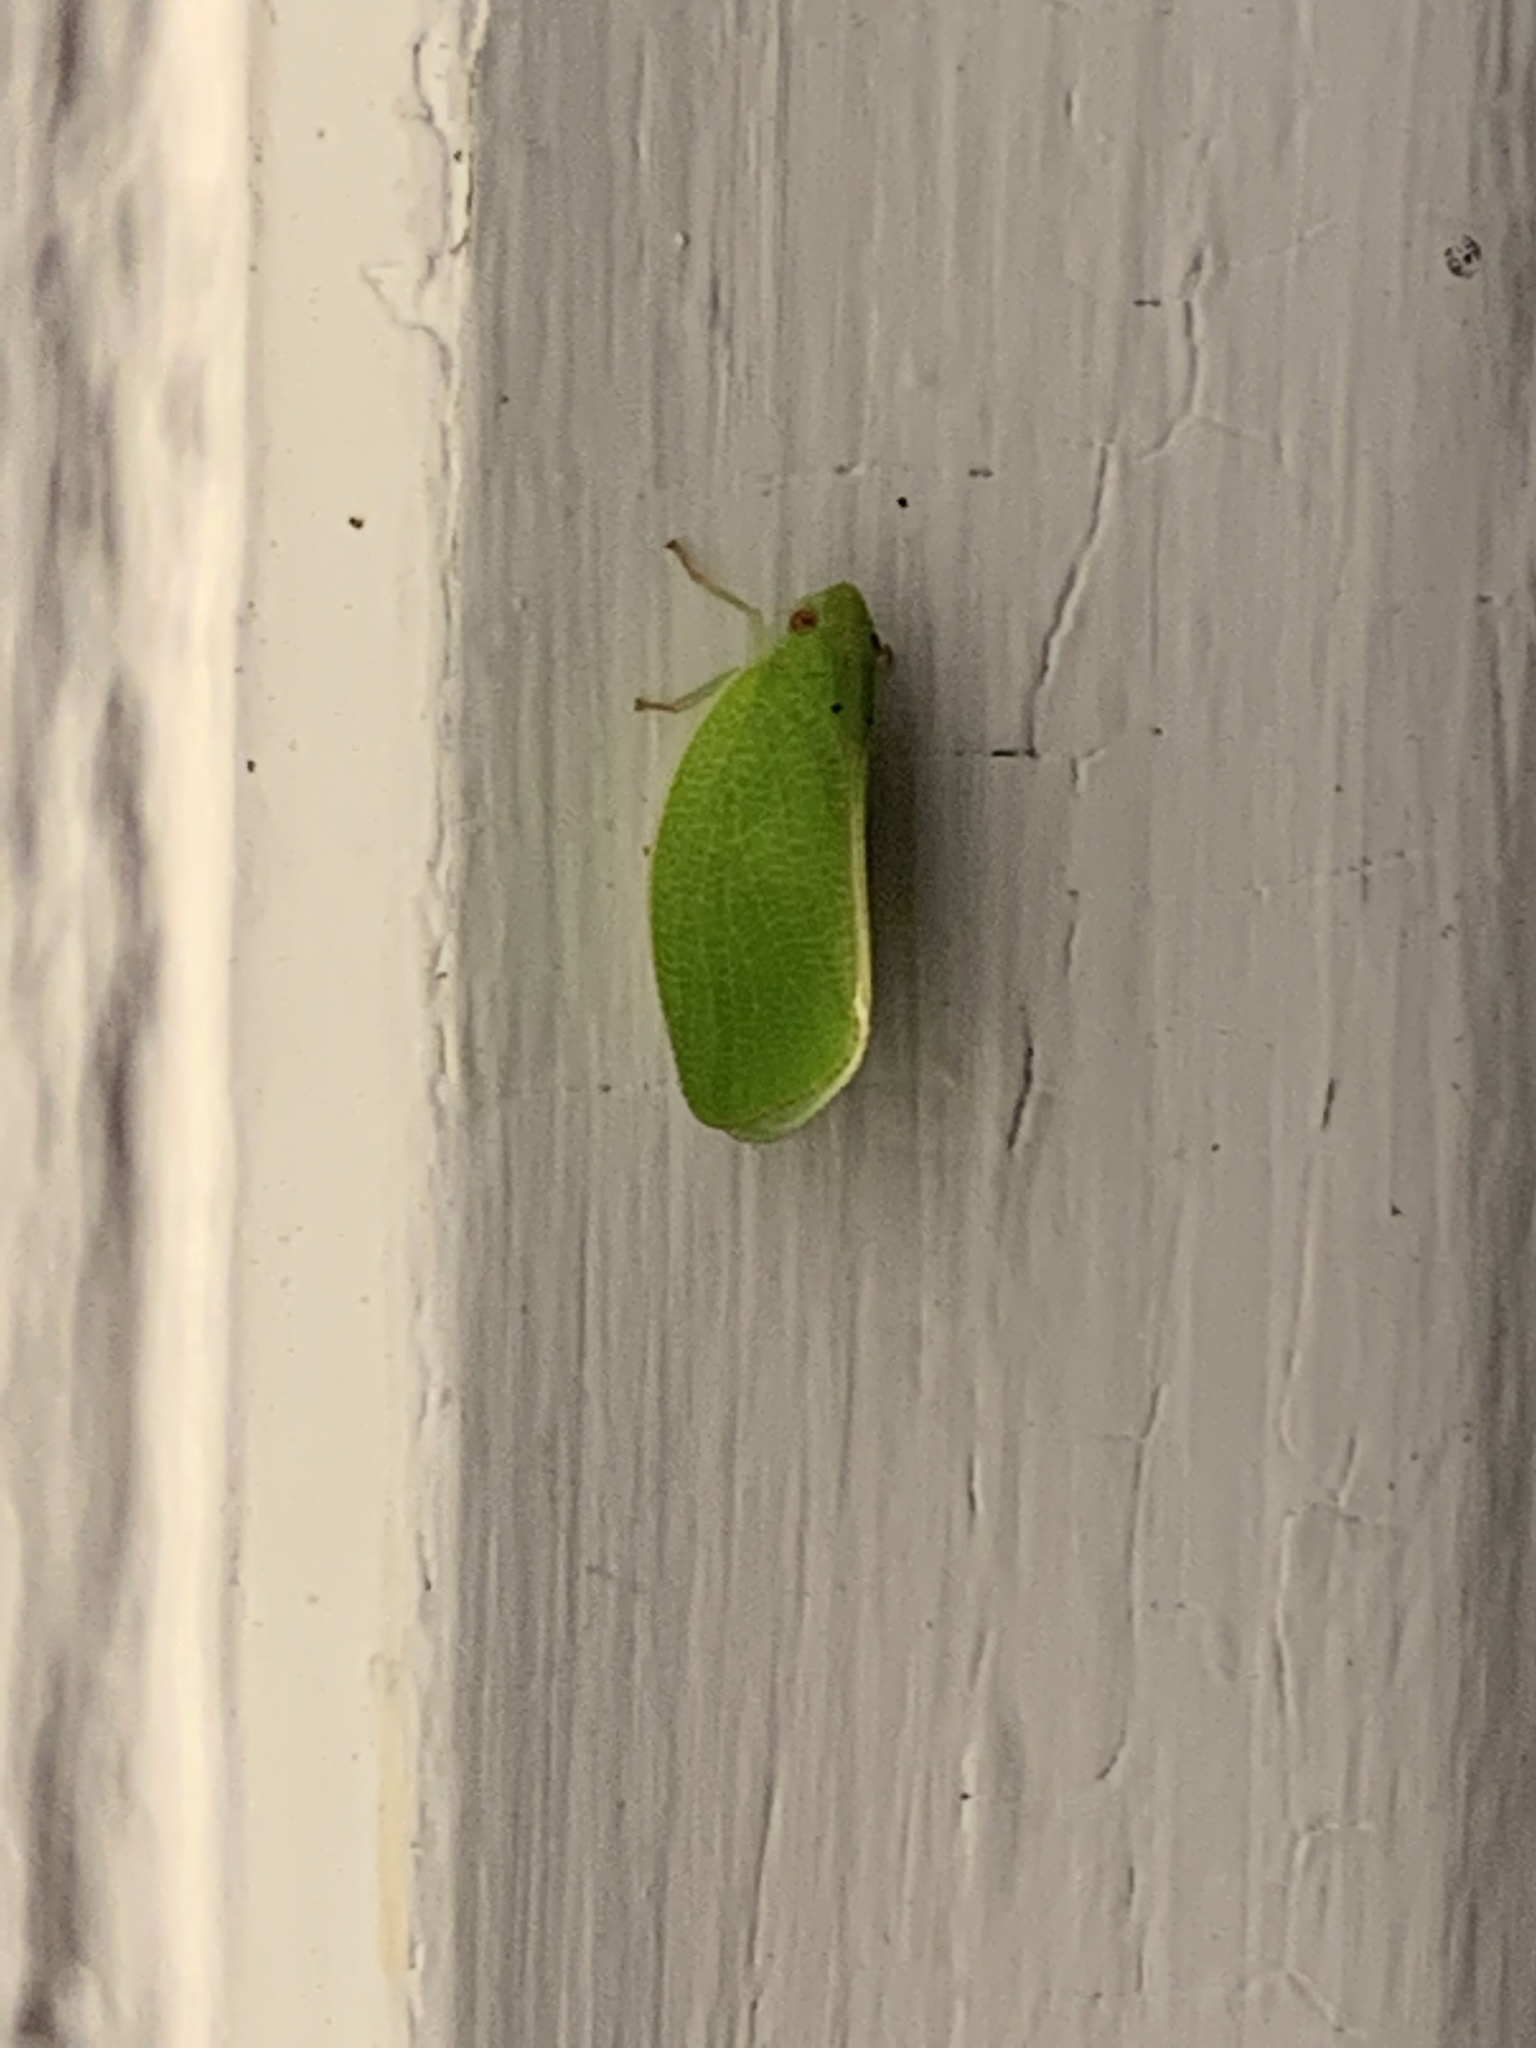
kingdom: Animalia
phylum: Arthropoda
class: Insecta
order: Hemiptera
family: Acanaloniidae
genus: Acanalonia
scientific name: Acanalonia conica
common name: Green cone-headed planthopper
